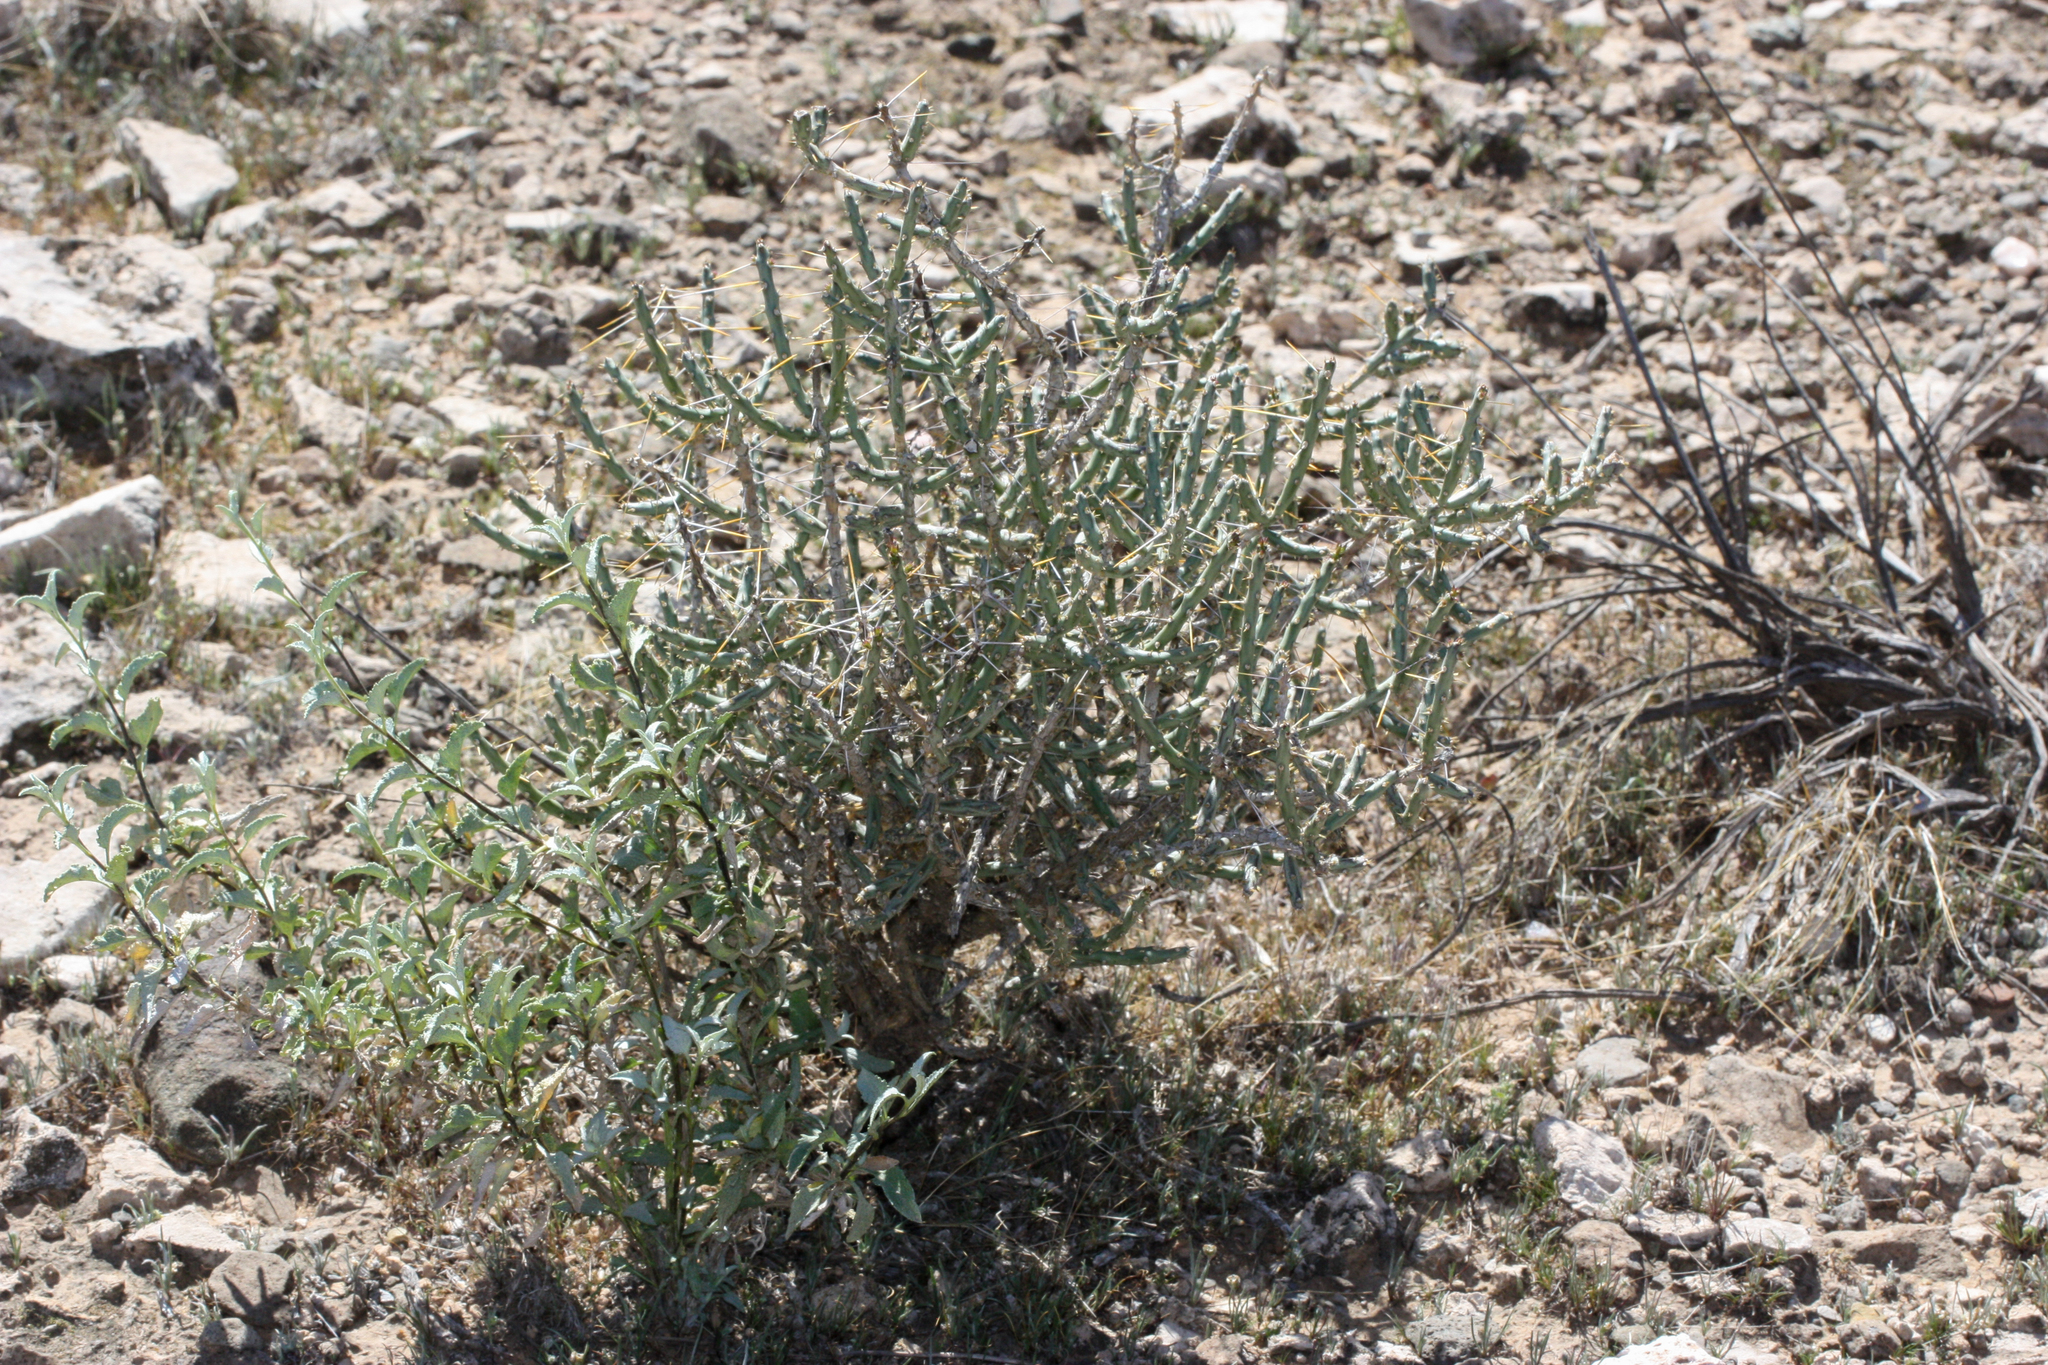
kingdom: Plantae
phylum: Tracheophyta
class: Magnoliopsida
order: Caryophyllales
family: Cactaceae
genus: Cylindropuntia
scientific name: Cylindropuntia leptocaulis
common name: Christmas cactus
